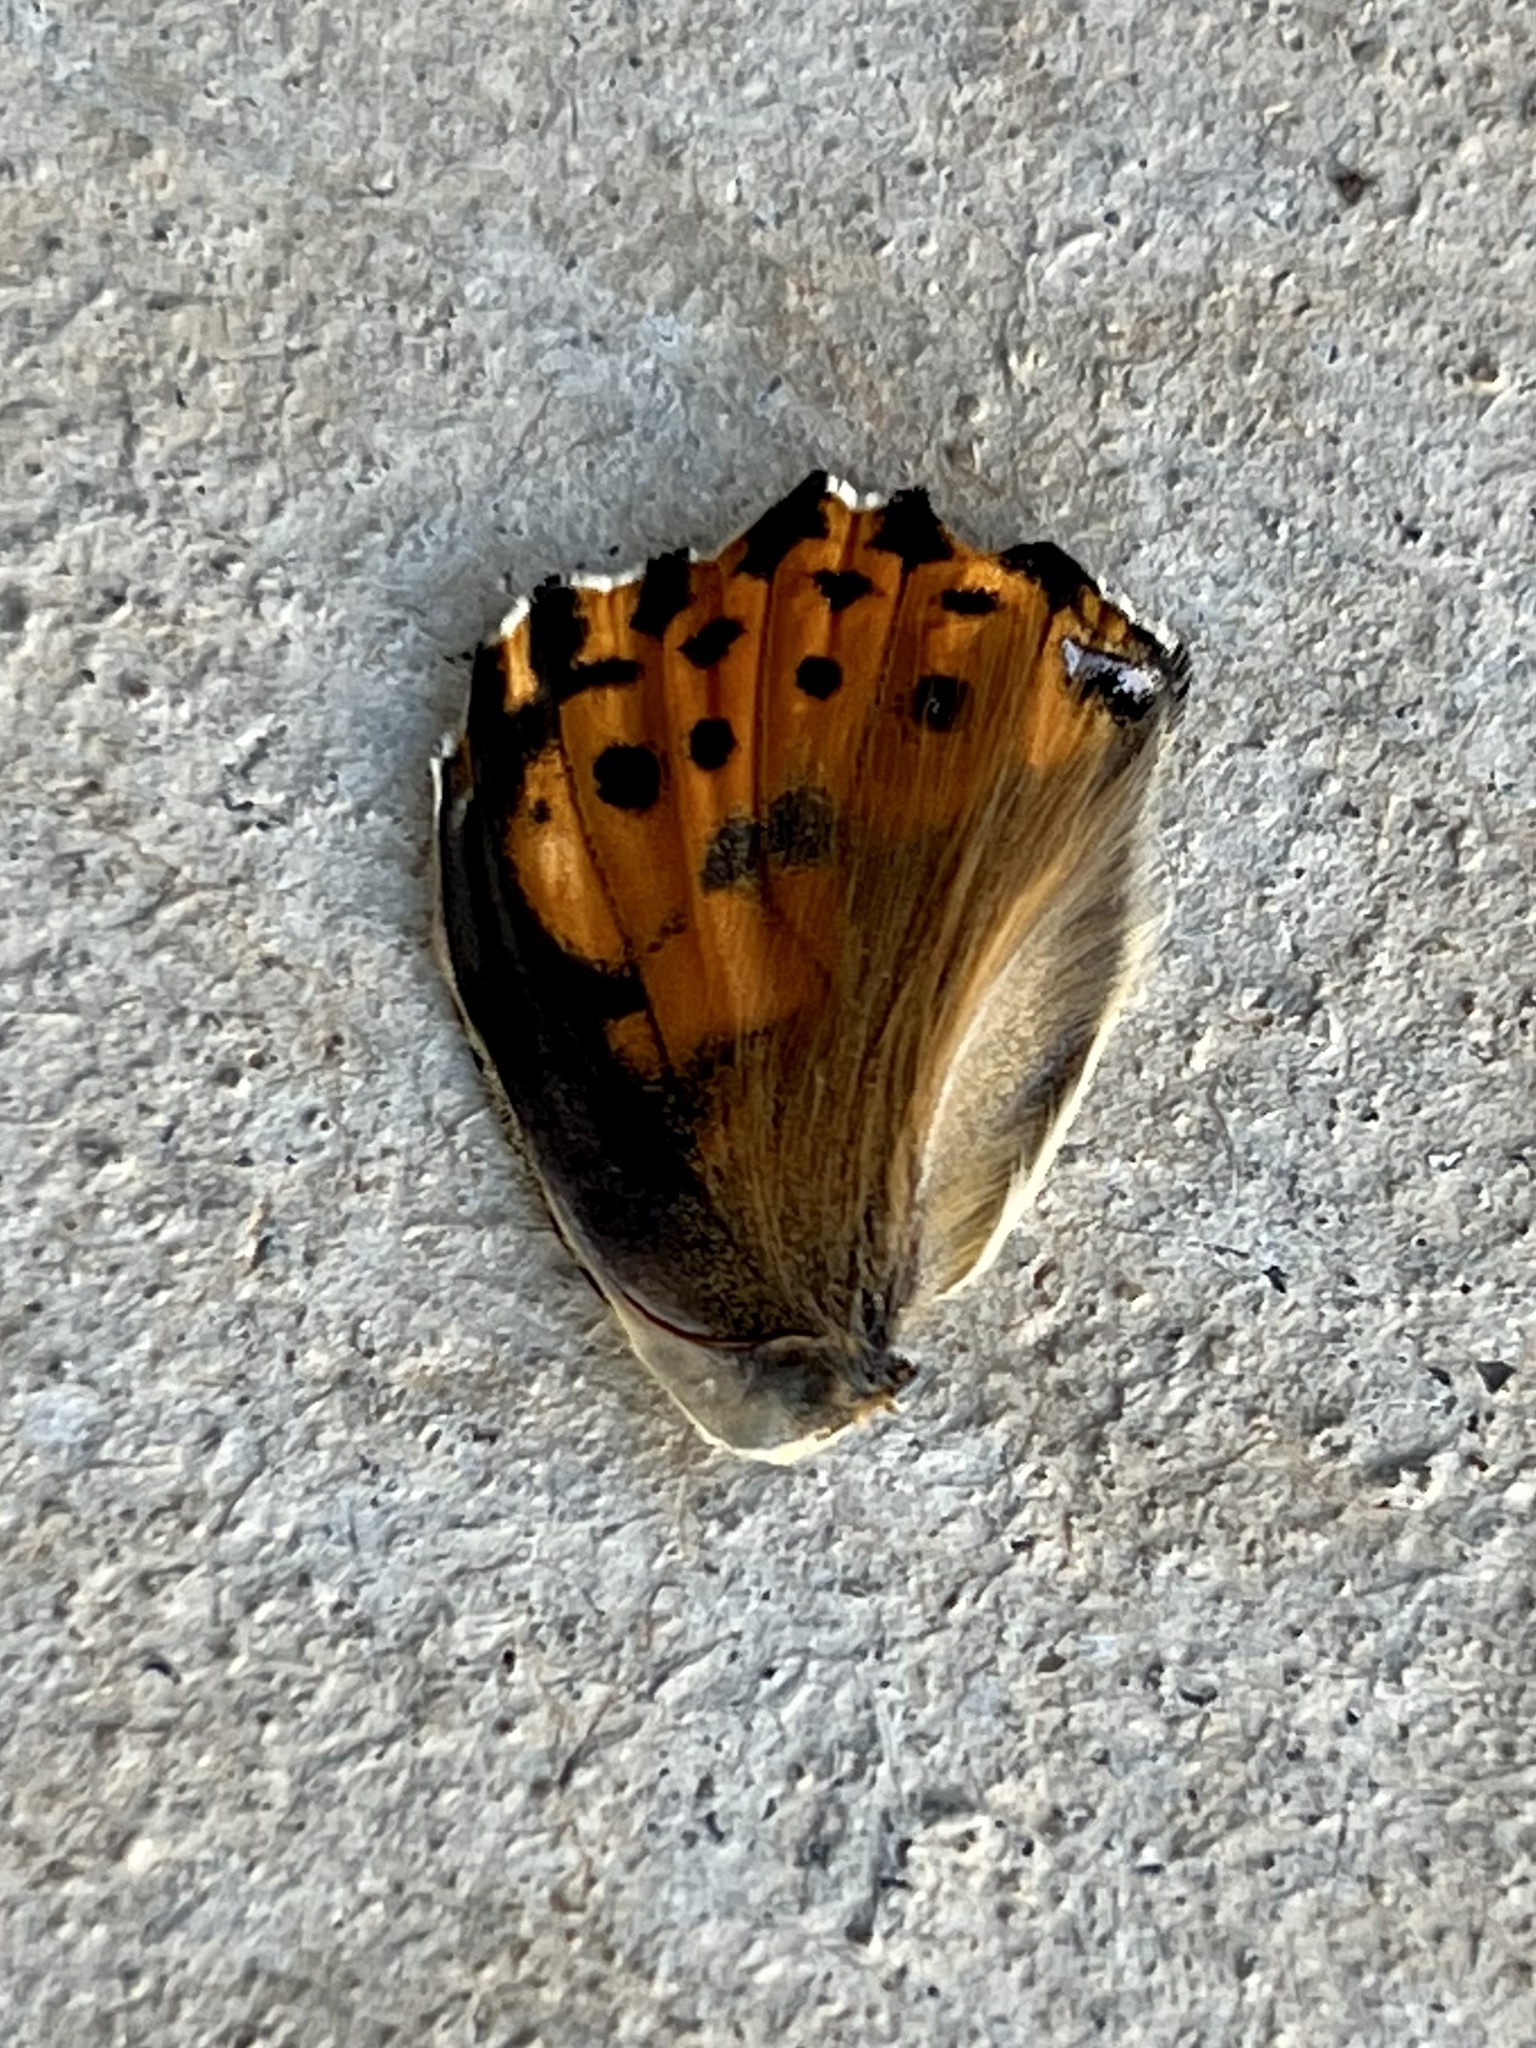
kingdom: Animalia
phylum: Arthropoda
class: Insecta
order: Lepidoptera
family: Nymphalidae
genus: Vanessa
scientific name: Vanessa cardui
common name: Painted lady
